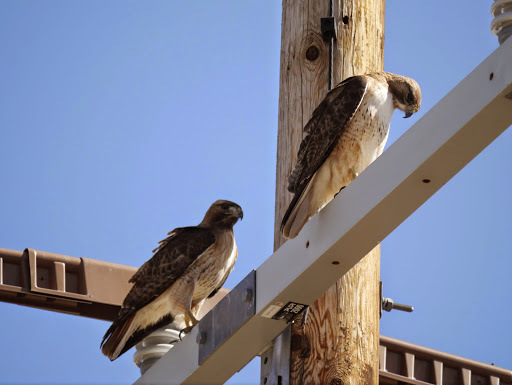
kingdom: Animalia
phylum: Chordata
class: Aves
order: Accipitriformes
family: Accipitridae
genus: Buteo
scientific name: Buteo jamaicensis
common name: Red-tailed hawk
